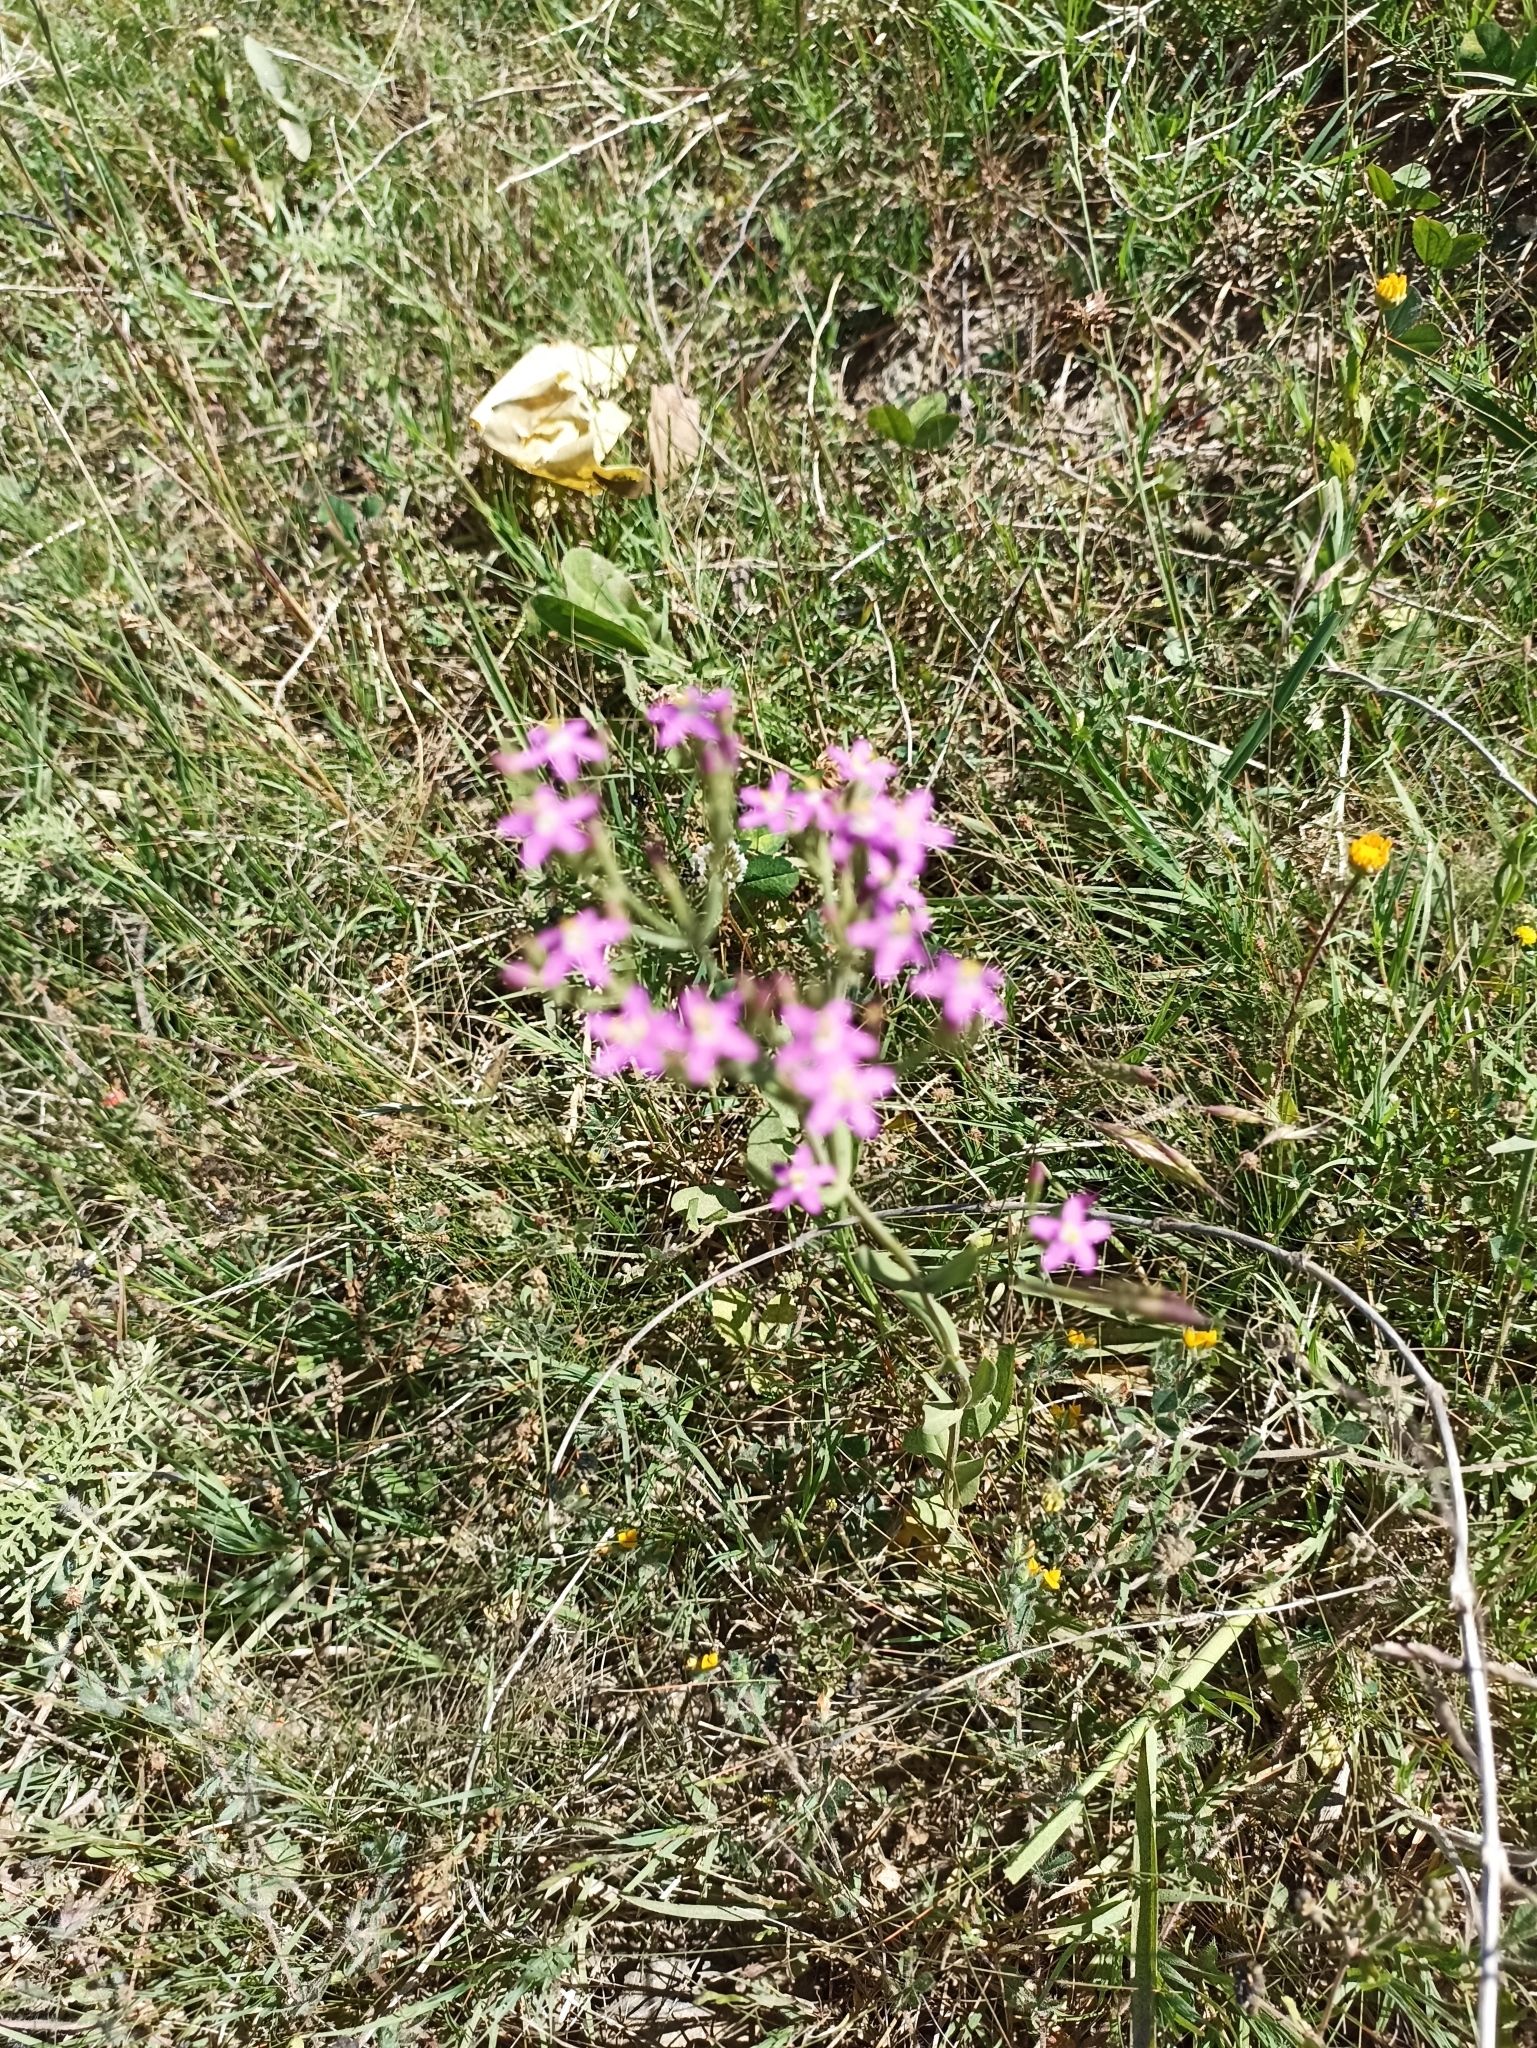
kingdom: Plantae
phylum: Tracheophyta
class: Magnoliopsida
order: Gentianales
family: Gentianaceae
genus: Centaurium
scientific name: Centaurium pulchellum
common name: Lesser centaury
